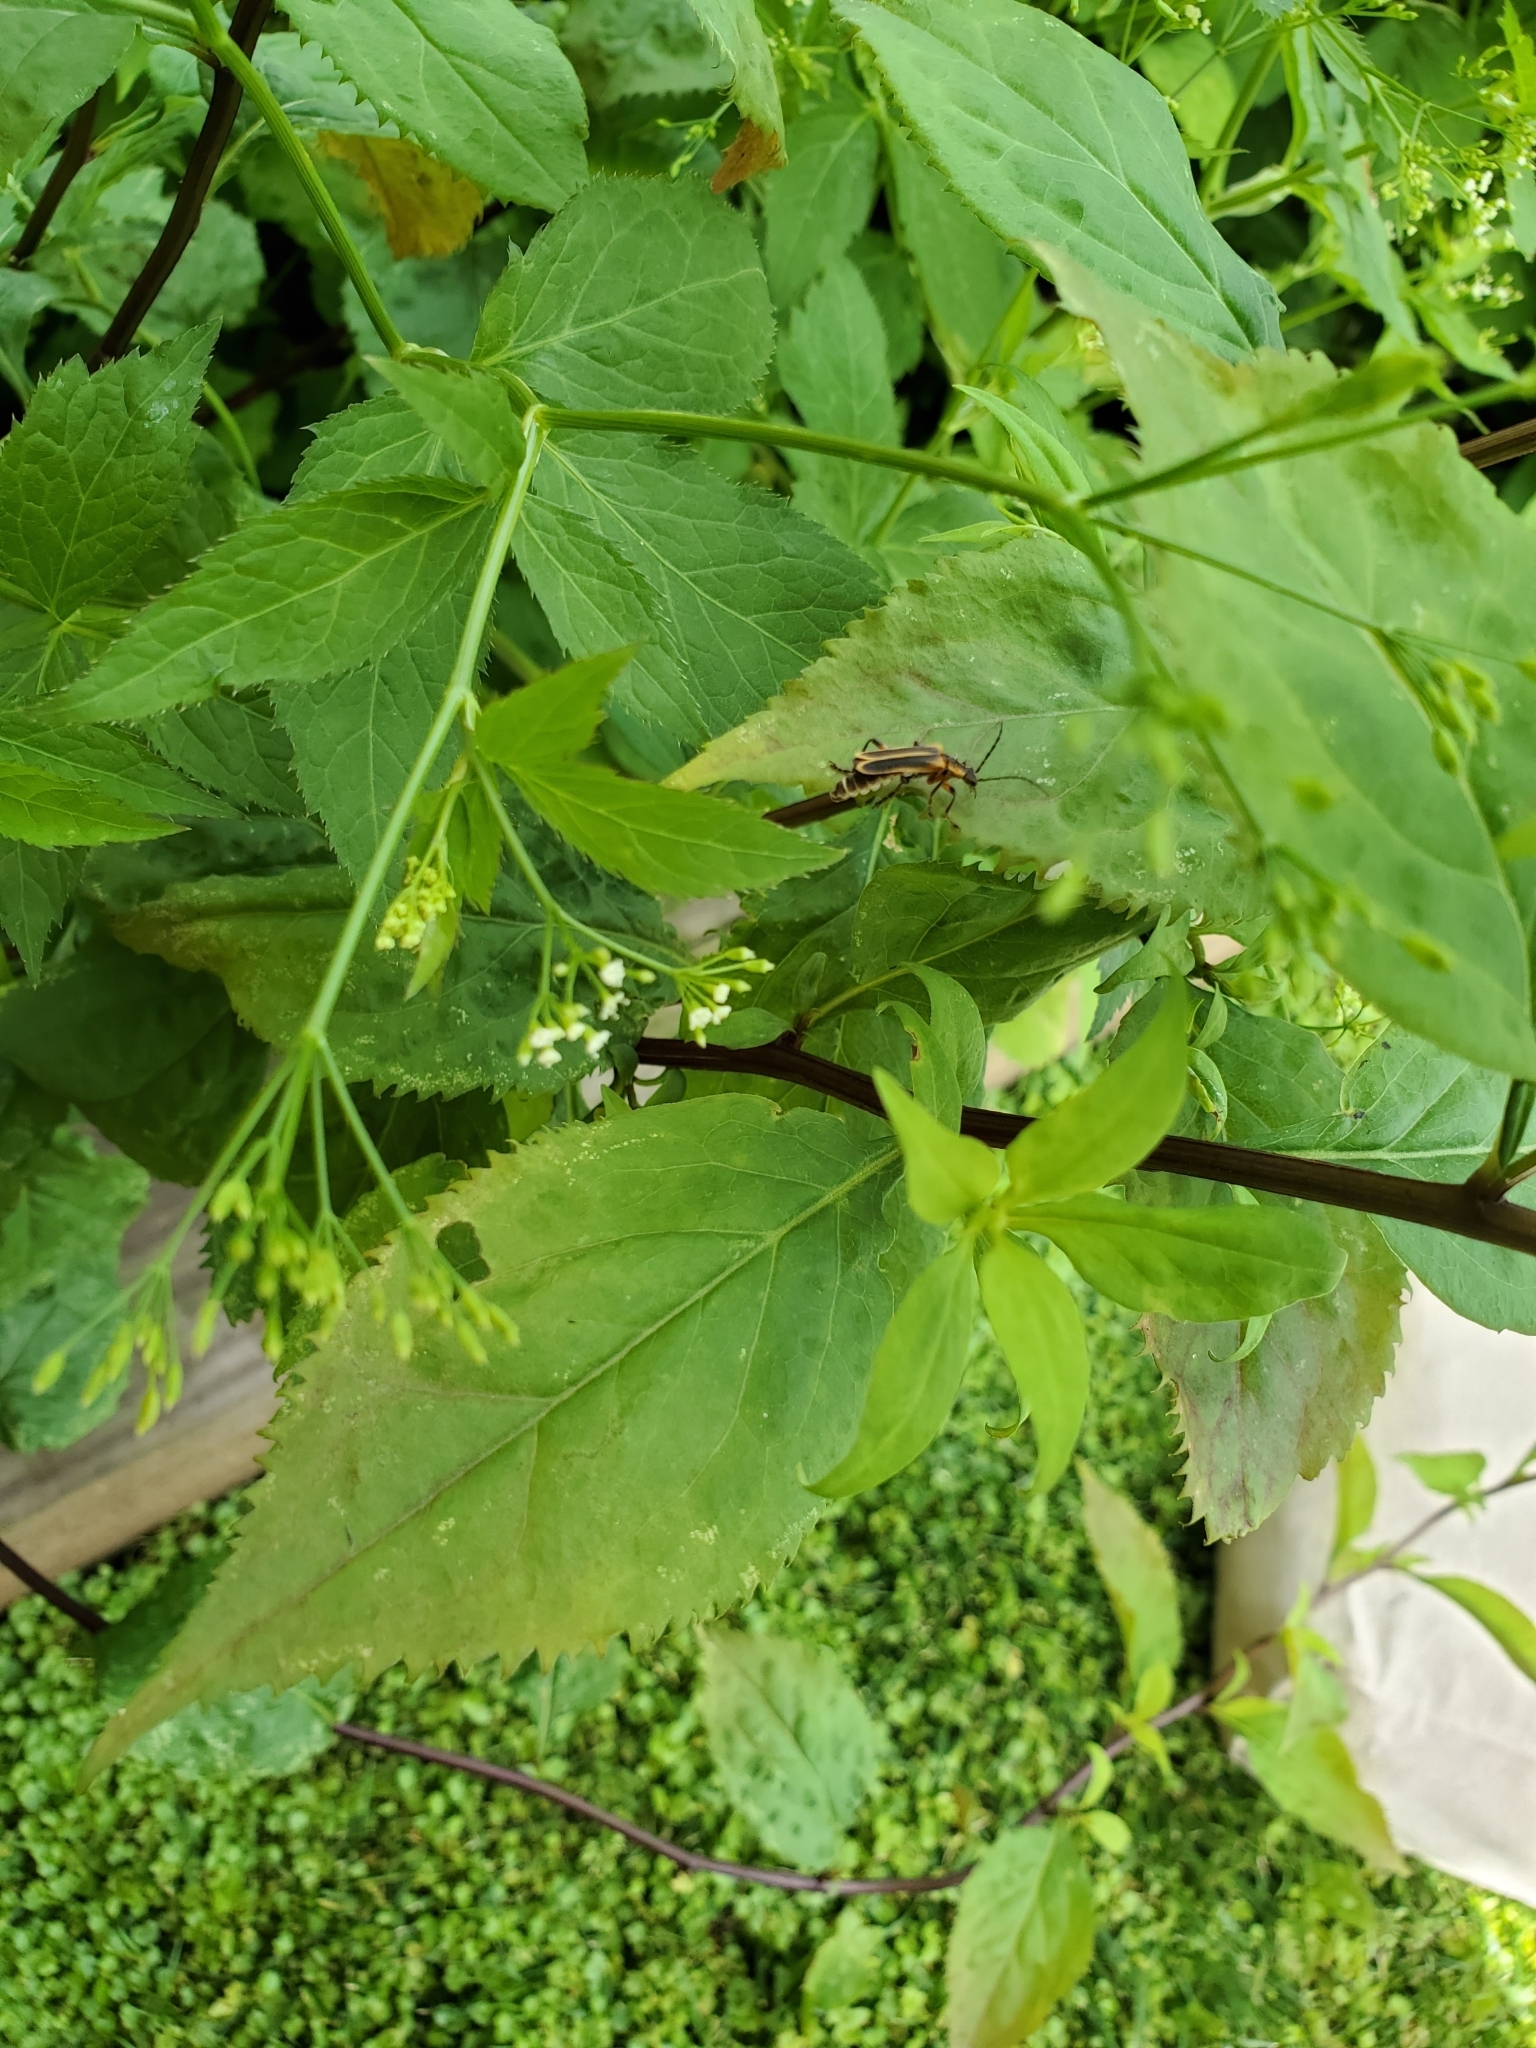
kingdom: Animalia
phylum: Arthropoda
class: Insecta
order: Coleoptera
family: Cantharidae
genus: Chauliognathus
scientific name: Chauliognathus marginatus
